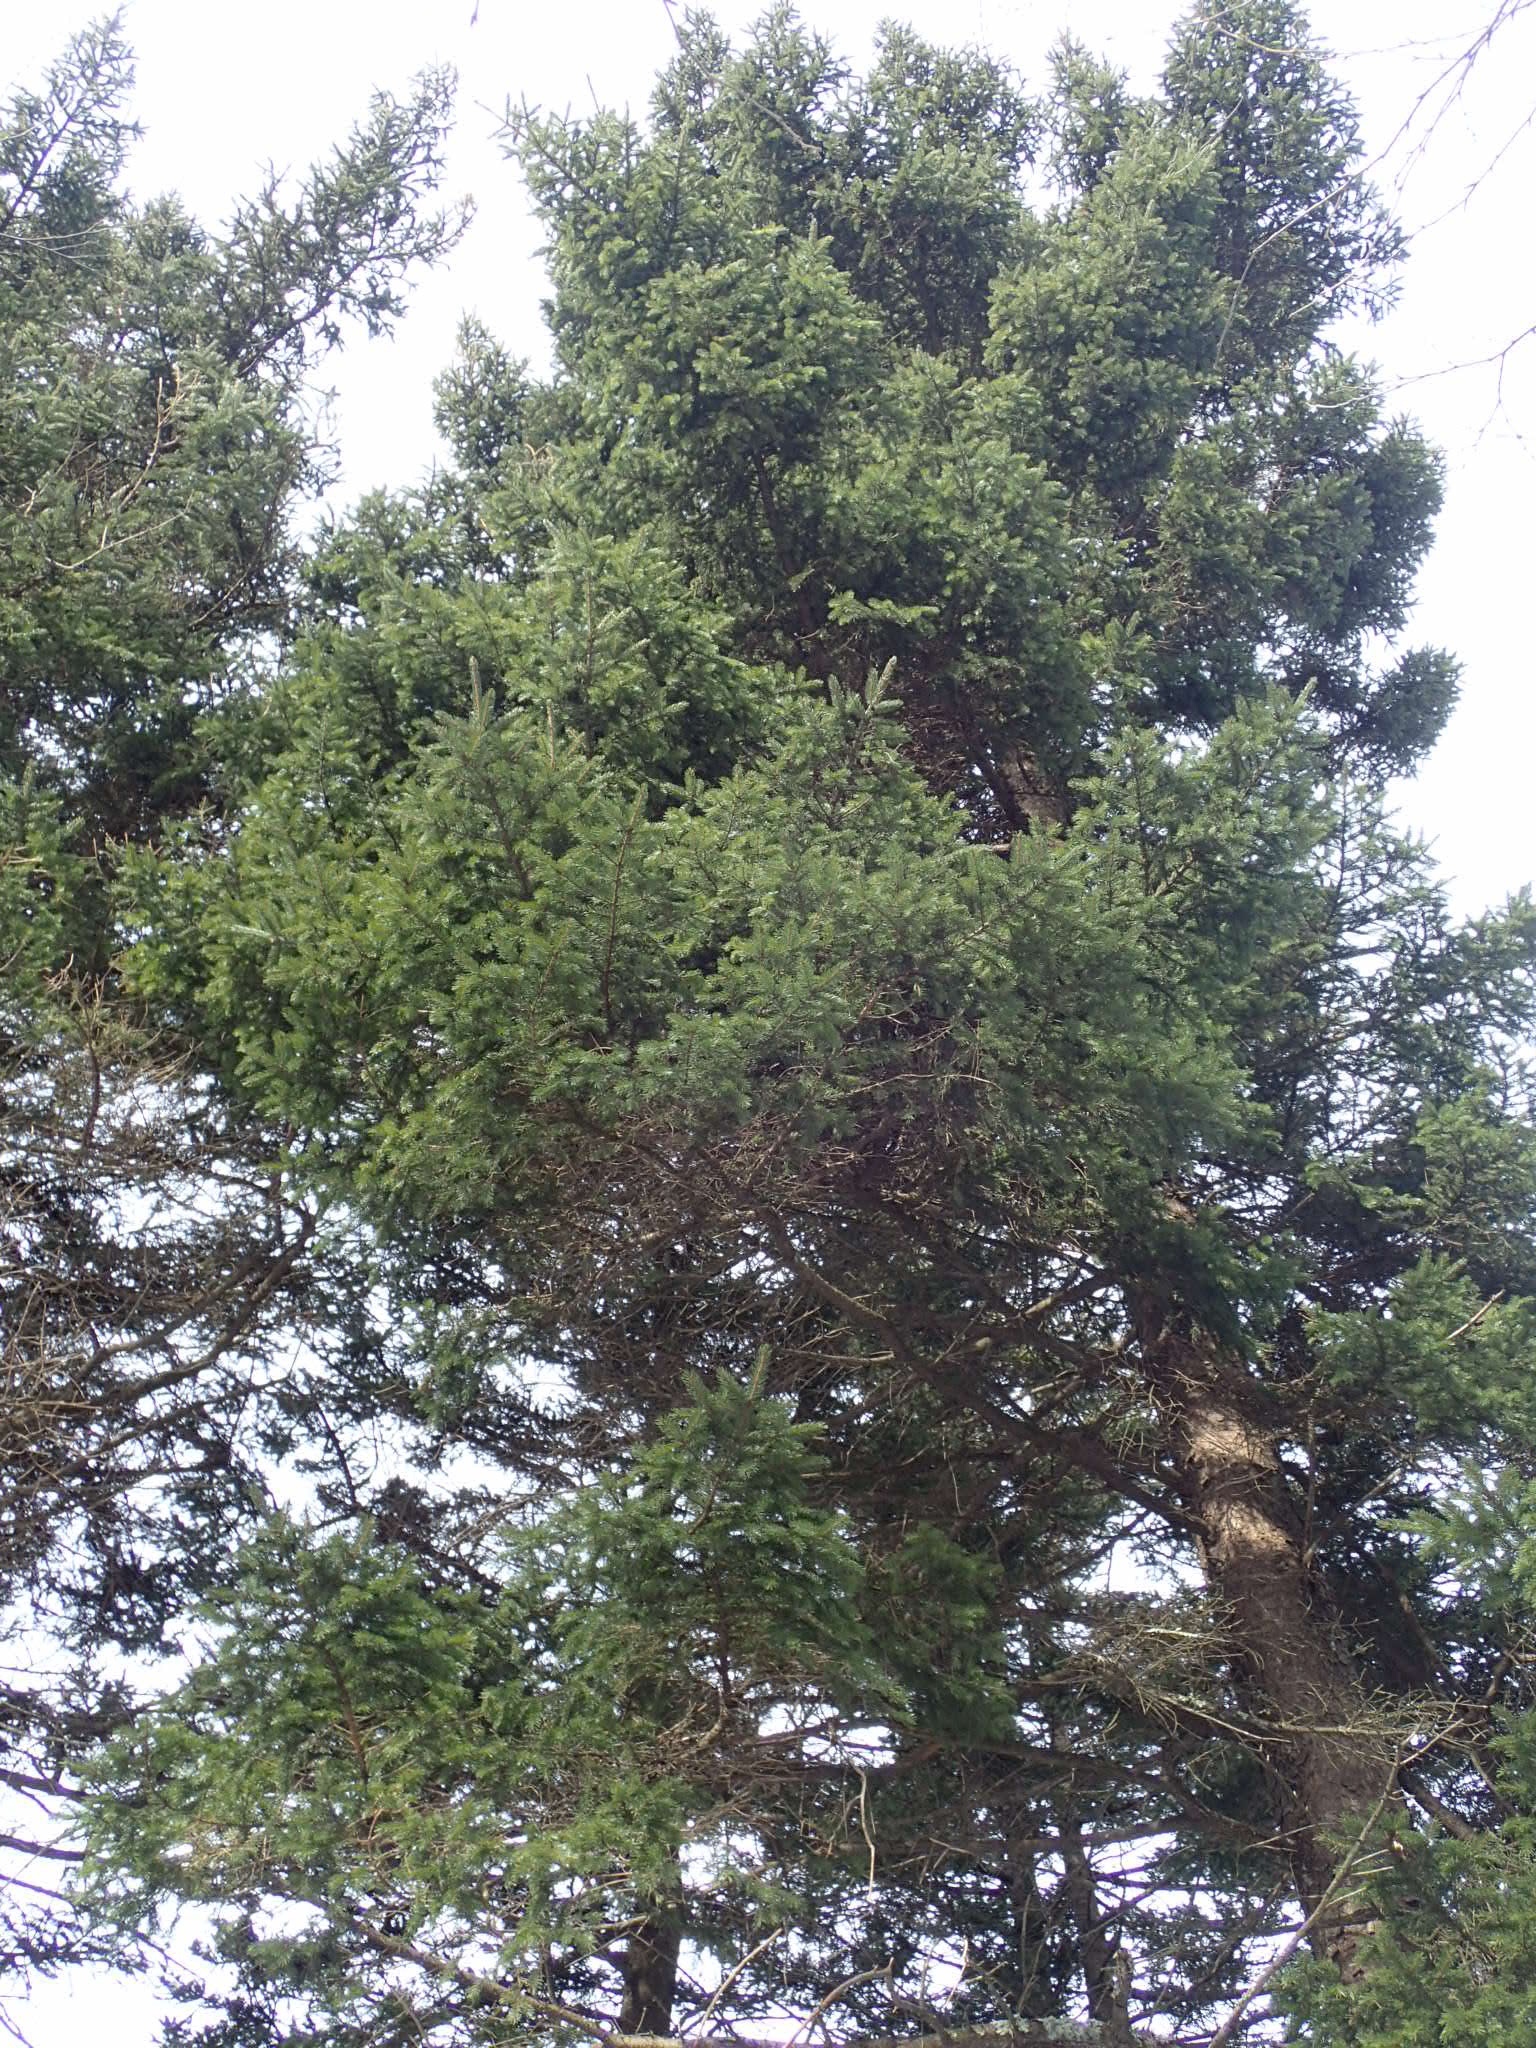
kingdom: Plantae
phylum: Tracheophyta
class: Pinopsida
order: Pinales
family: Pinaceae
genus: Picea
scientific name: Picea rubens
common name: Red spruce
